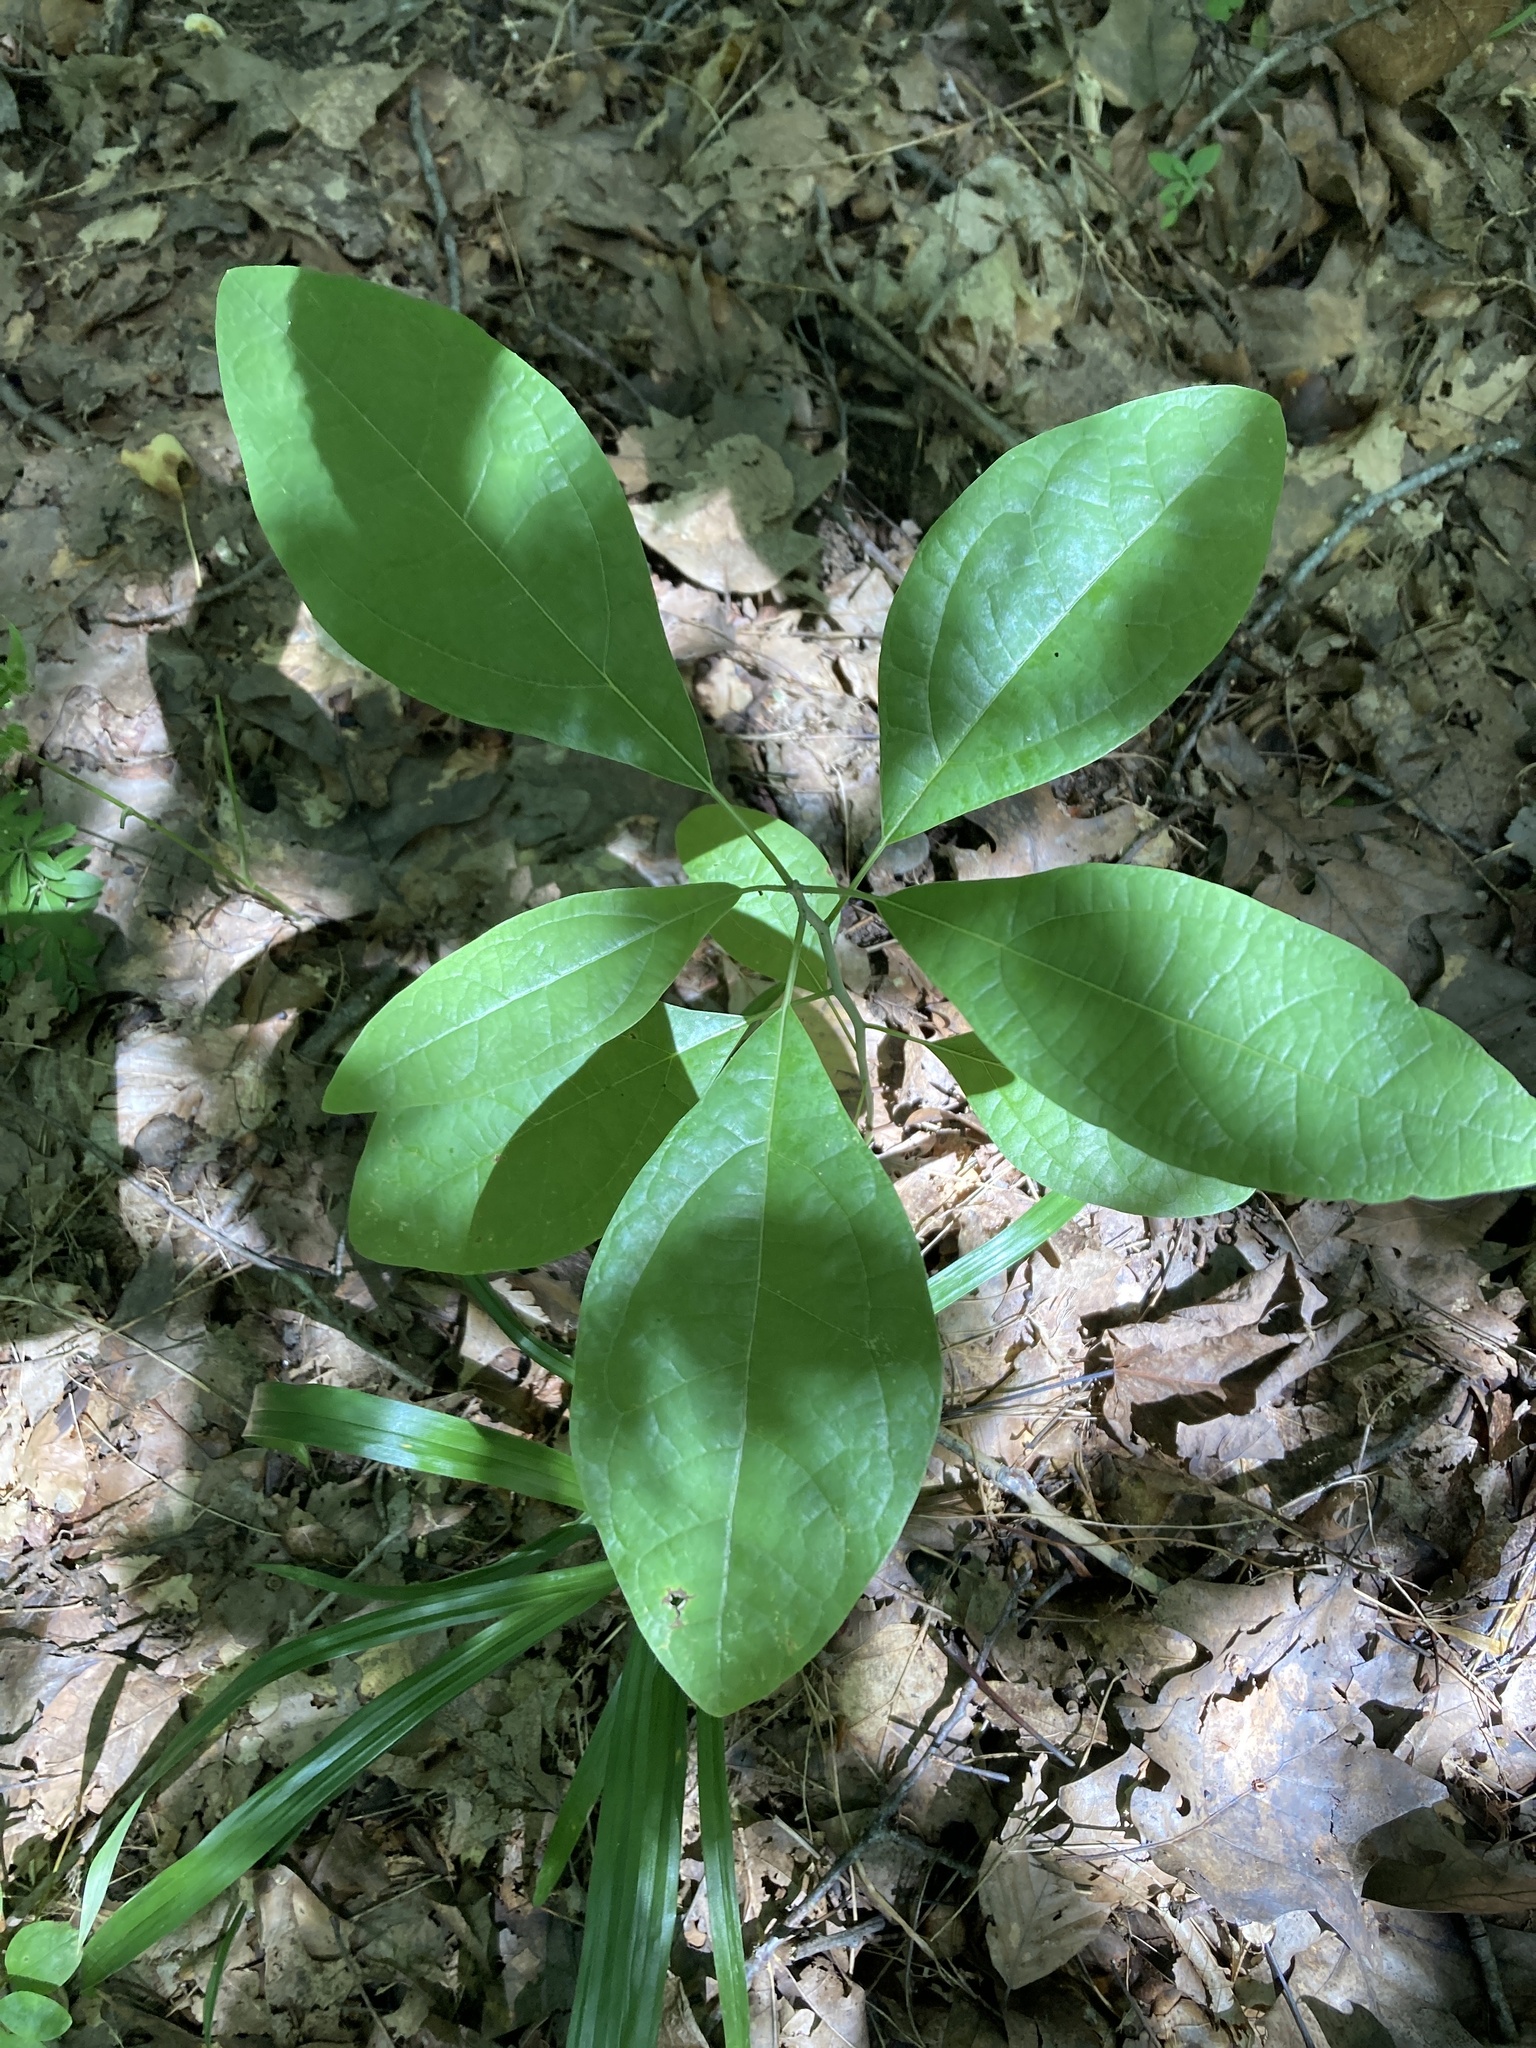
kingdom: Plantae
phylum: Tracheophyta
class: Magnoliopsida
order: Laurales
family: Lauraceae
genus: Sassafras
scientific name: Sassafras albidum
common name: Sassafras
